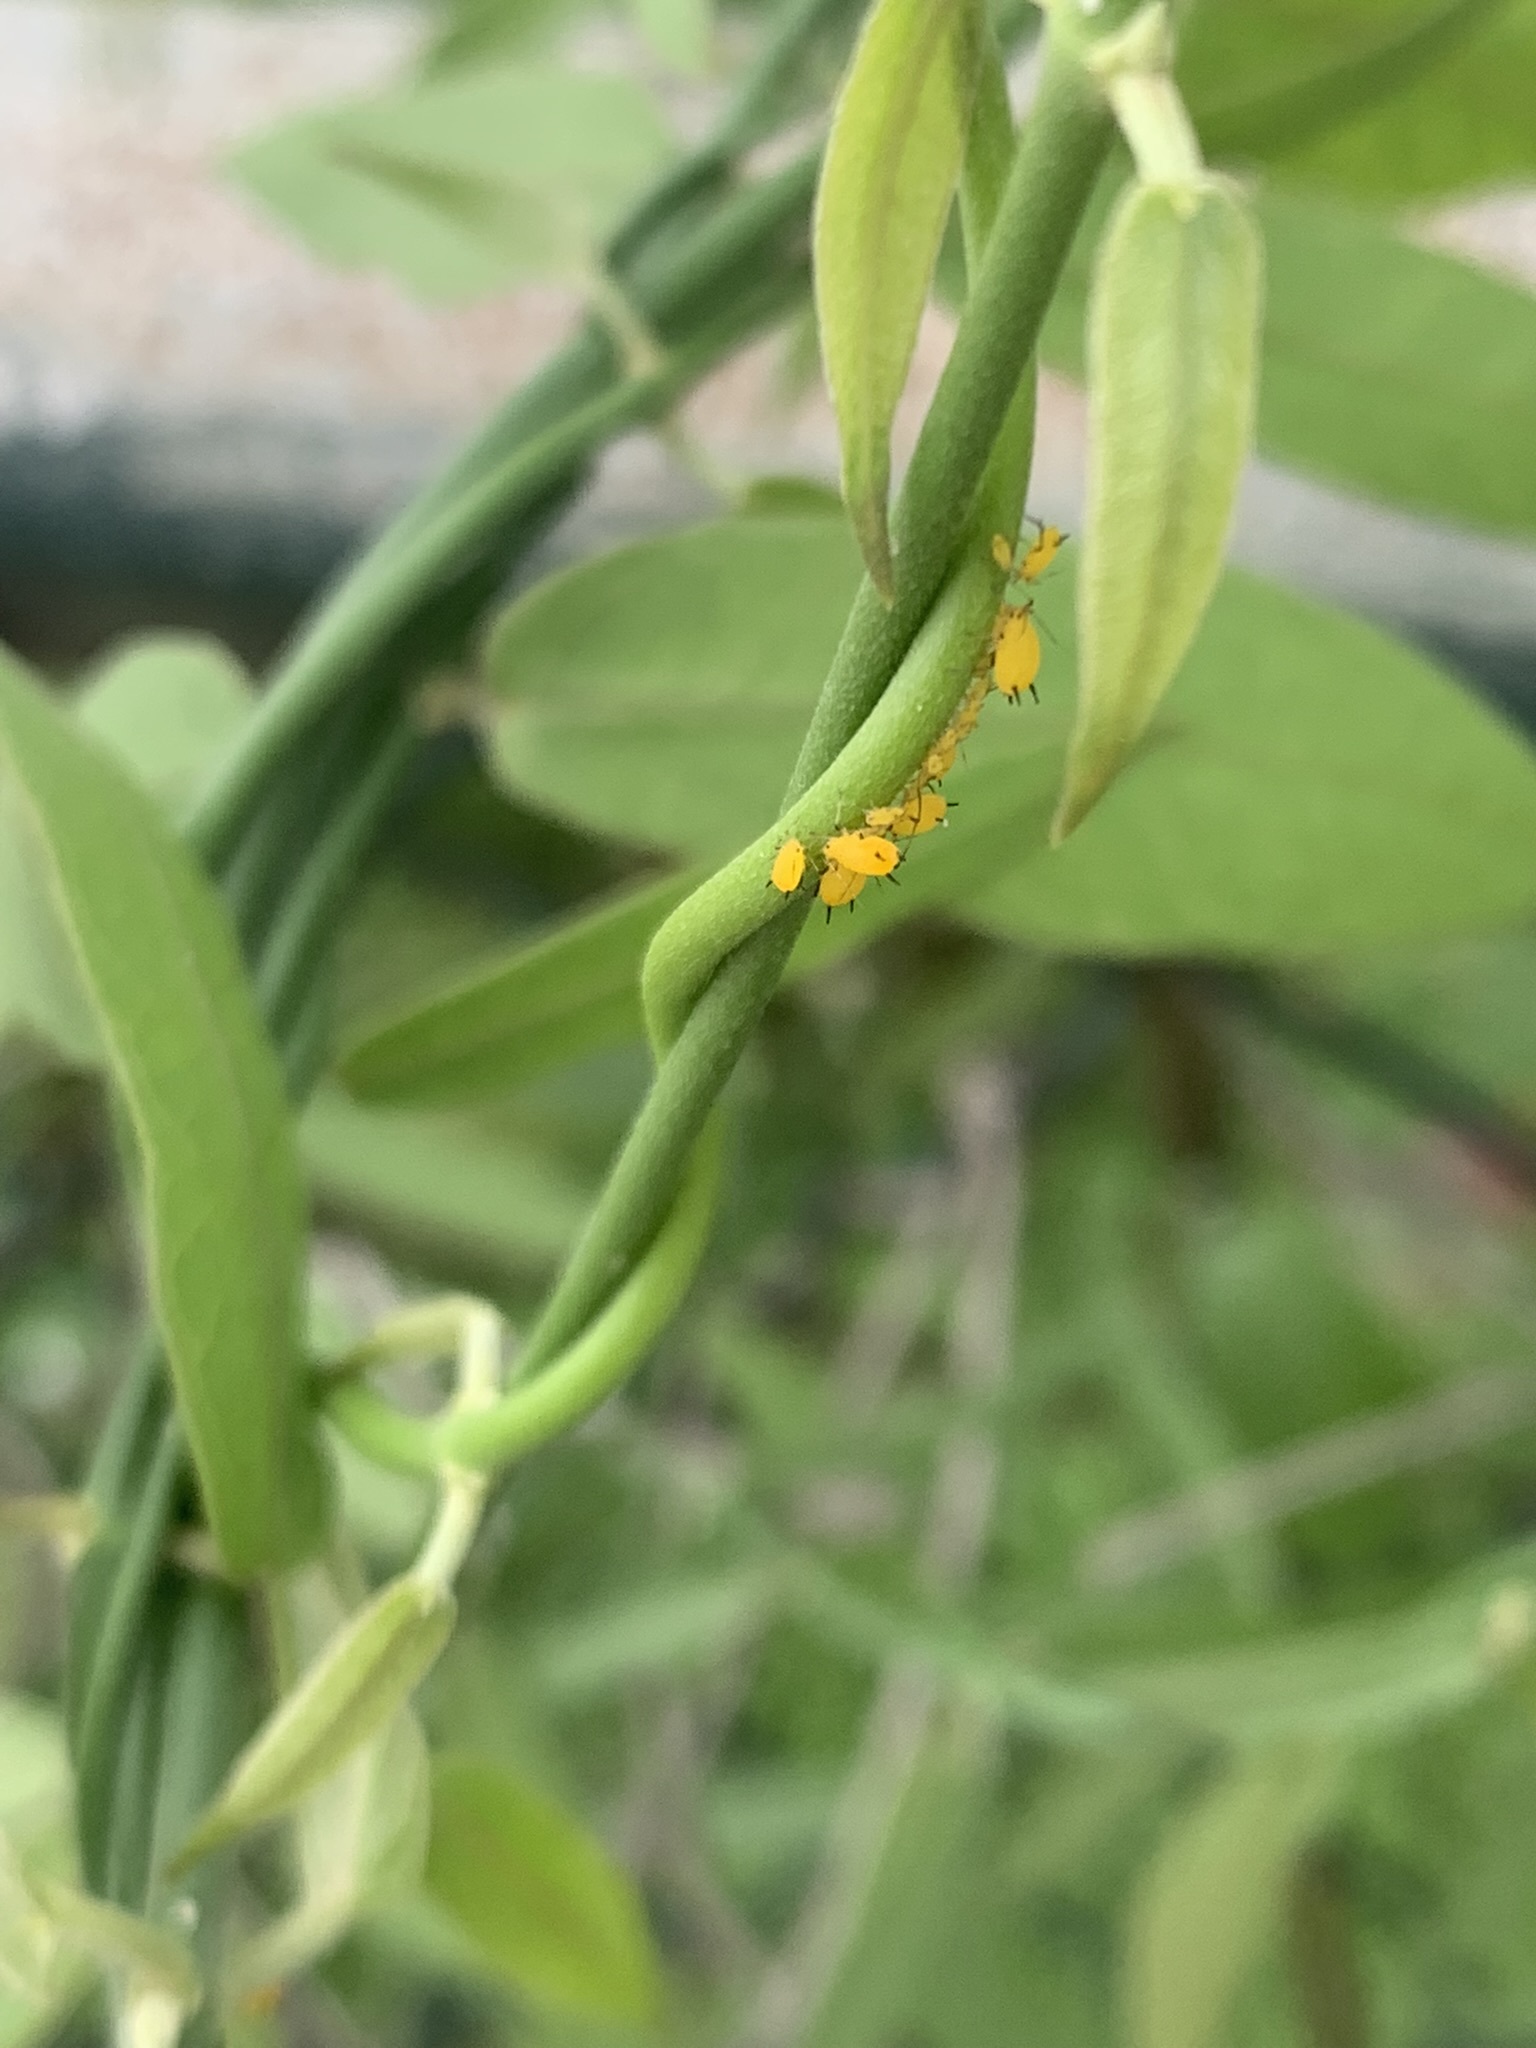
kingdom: Animalia
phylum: Arthropoda
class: Insecta
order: Hemiptera
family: Aphididae
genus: Aphis
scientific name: Aphis nerii
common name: Oleander aphid
